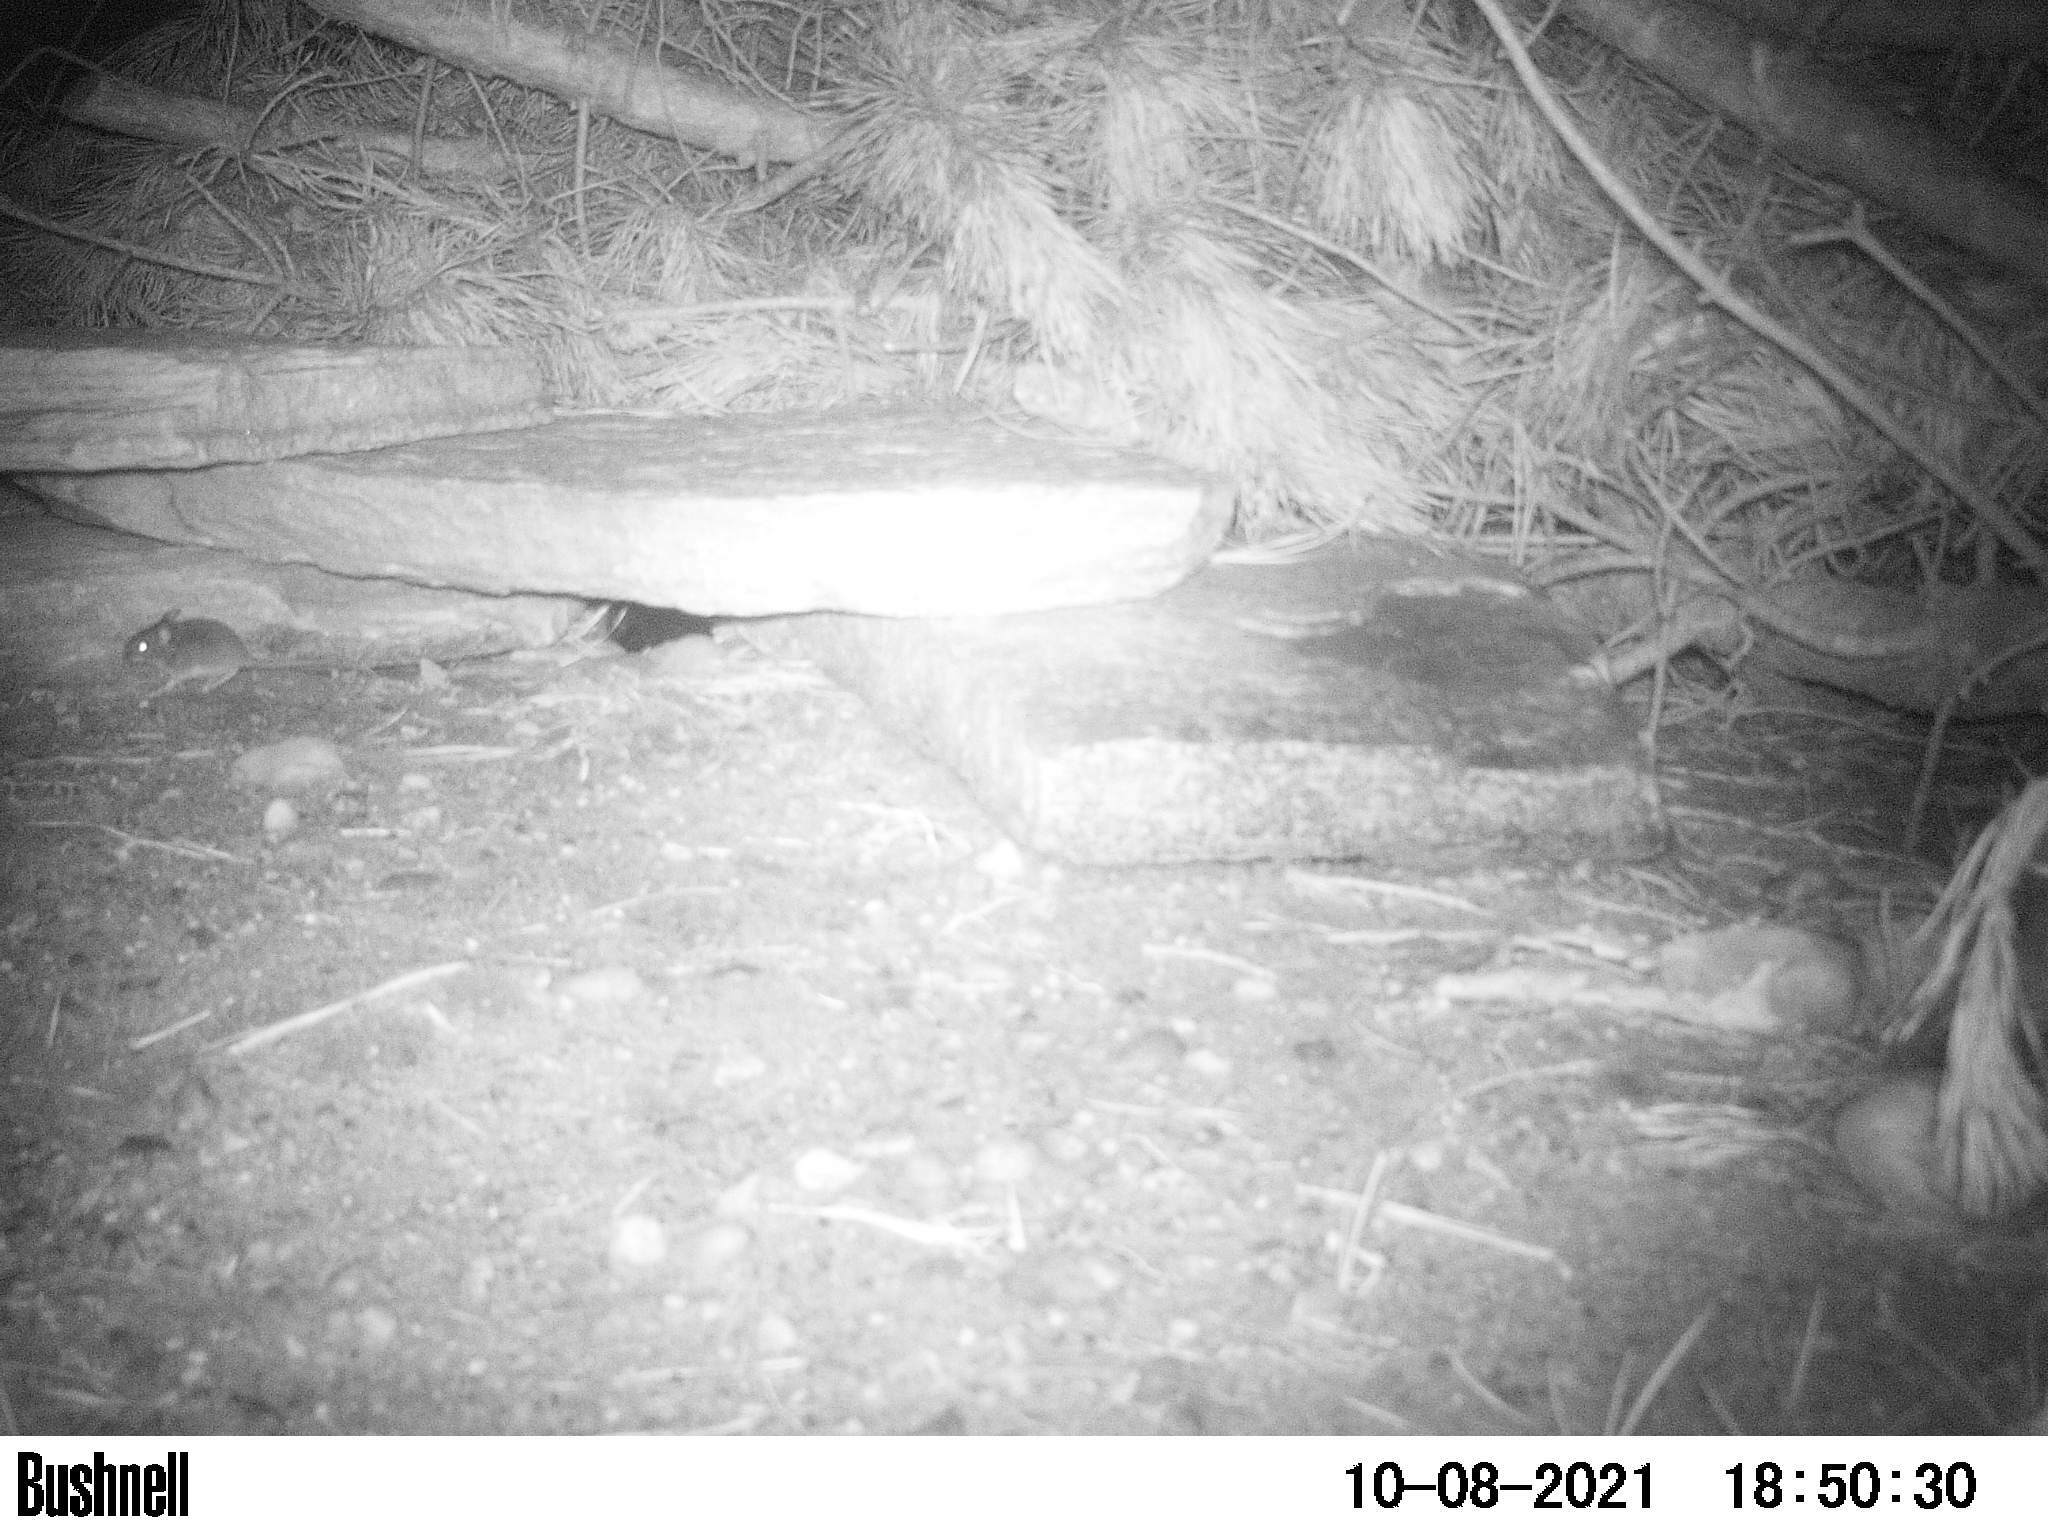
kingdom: Animalia
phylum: Chordata
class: Mammalia
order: Rodentia
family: Cricetidae
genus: Peromyscus
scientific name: Peromyscus leucopus
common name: White-footed deermouse
